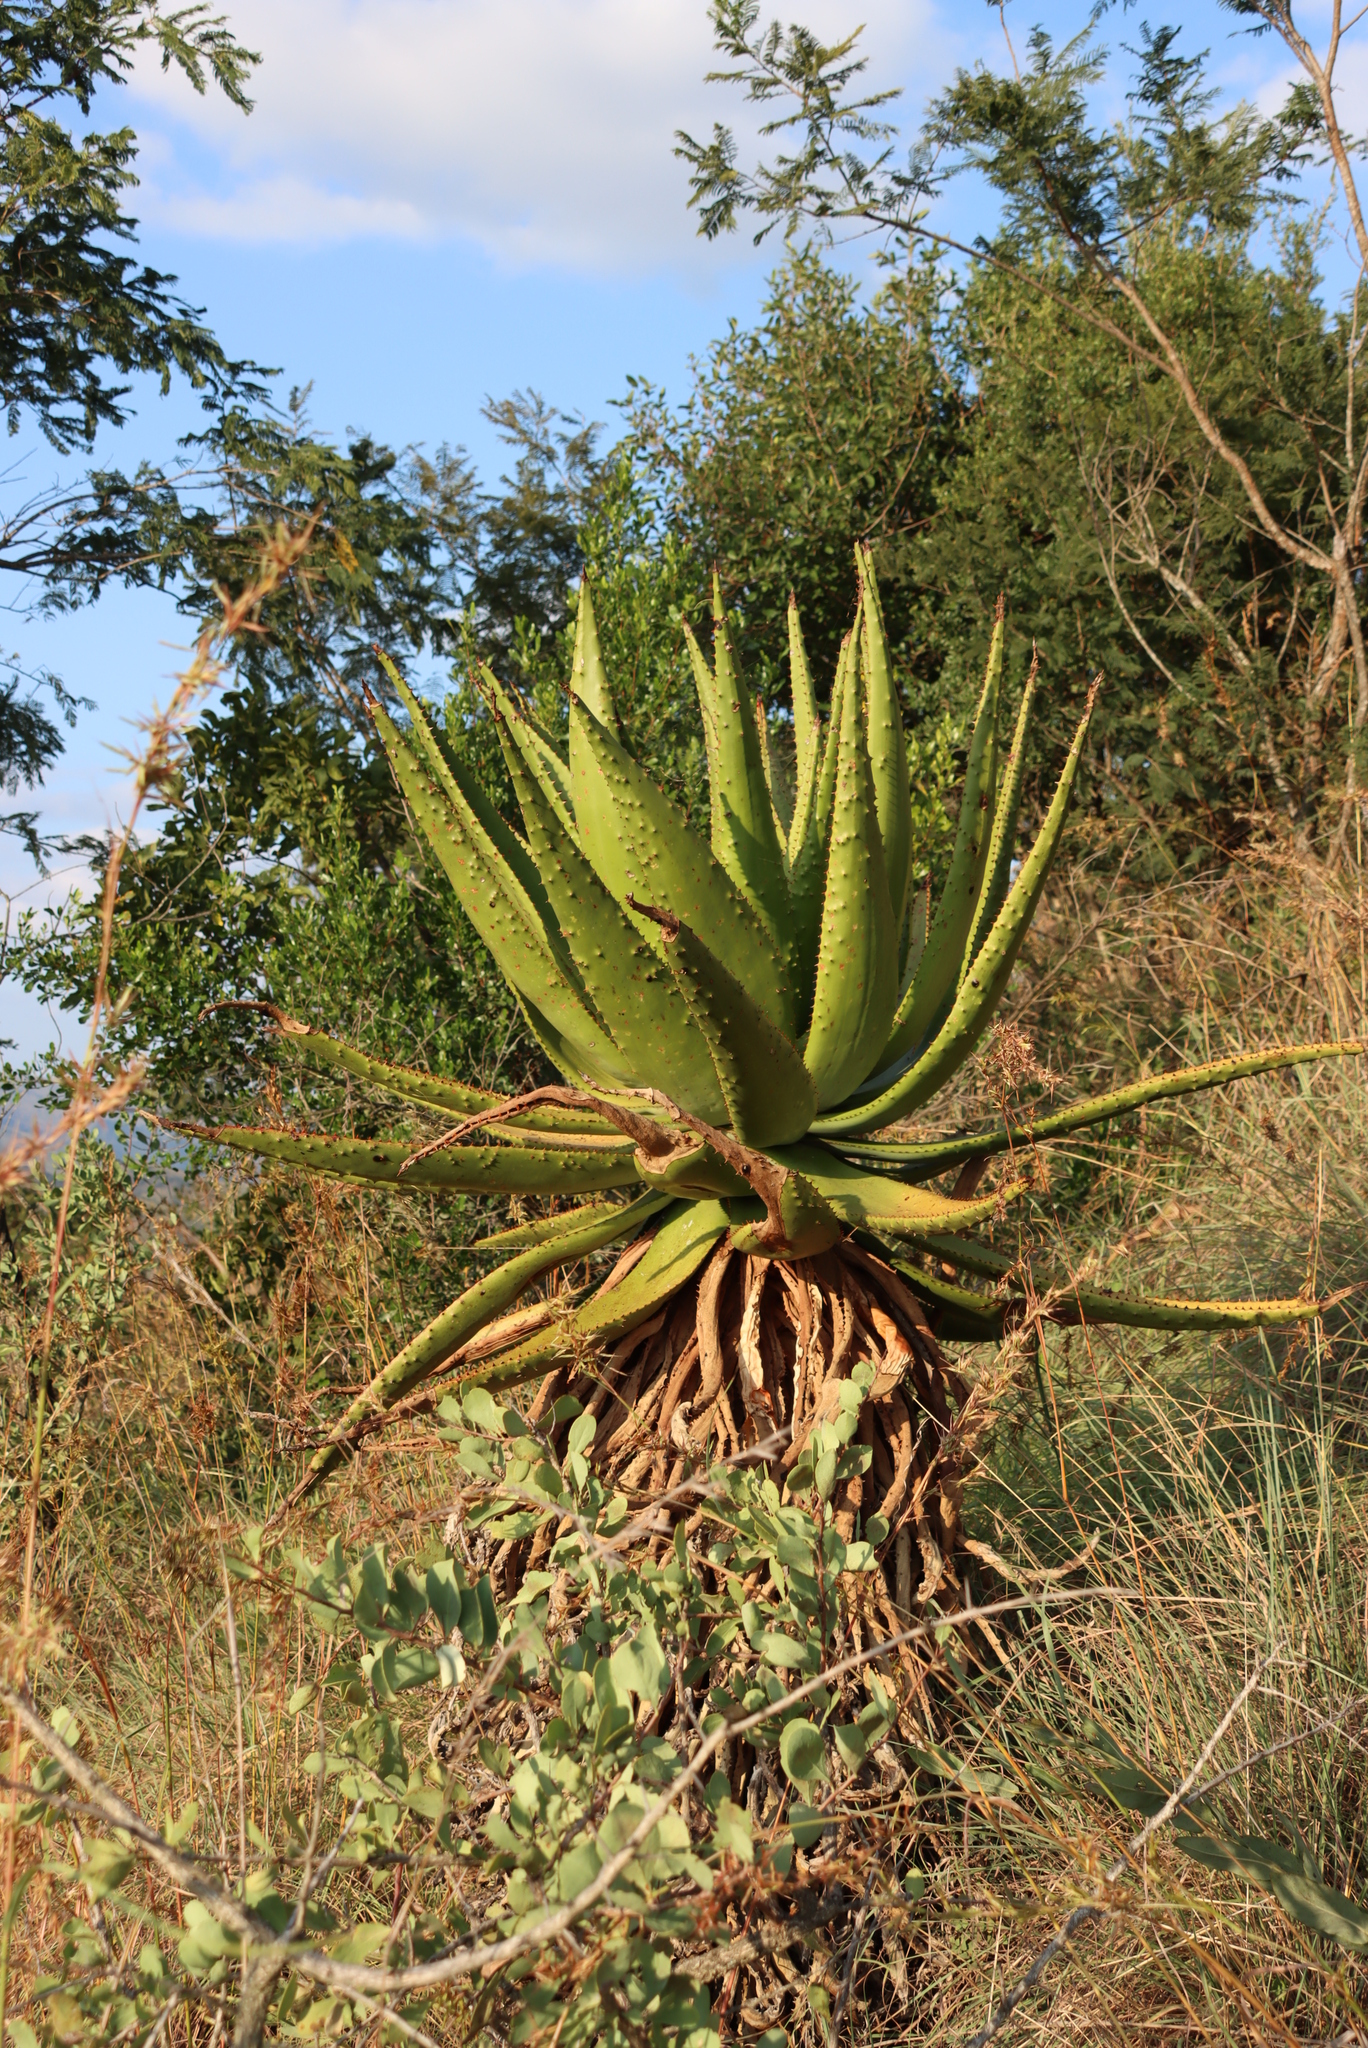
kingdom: Plantae
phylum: Tracheophyta
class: Liliopsida
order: Asparagales
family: Asphodelaceae
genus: Aloe
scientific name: Aloe marlothii
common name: Flat-flowered aloe
